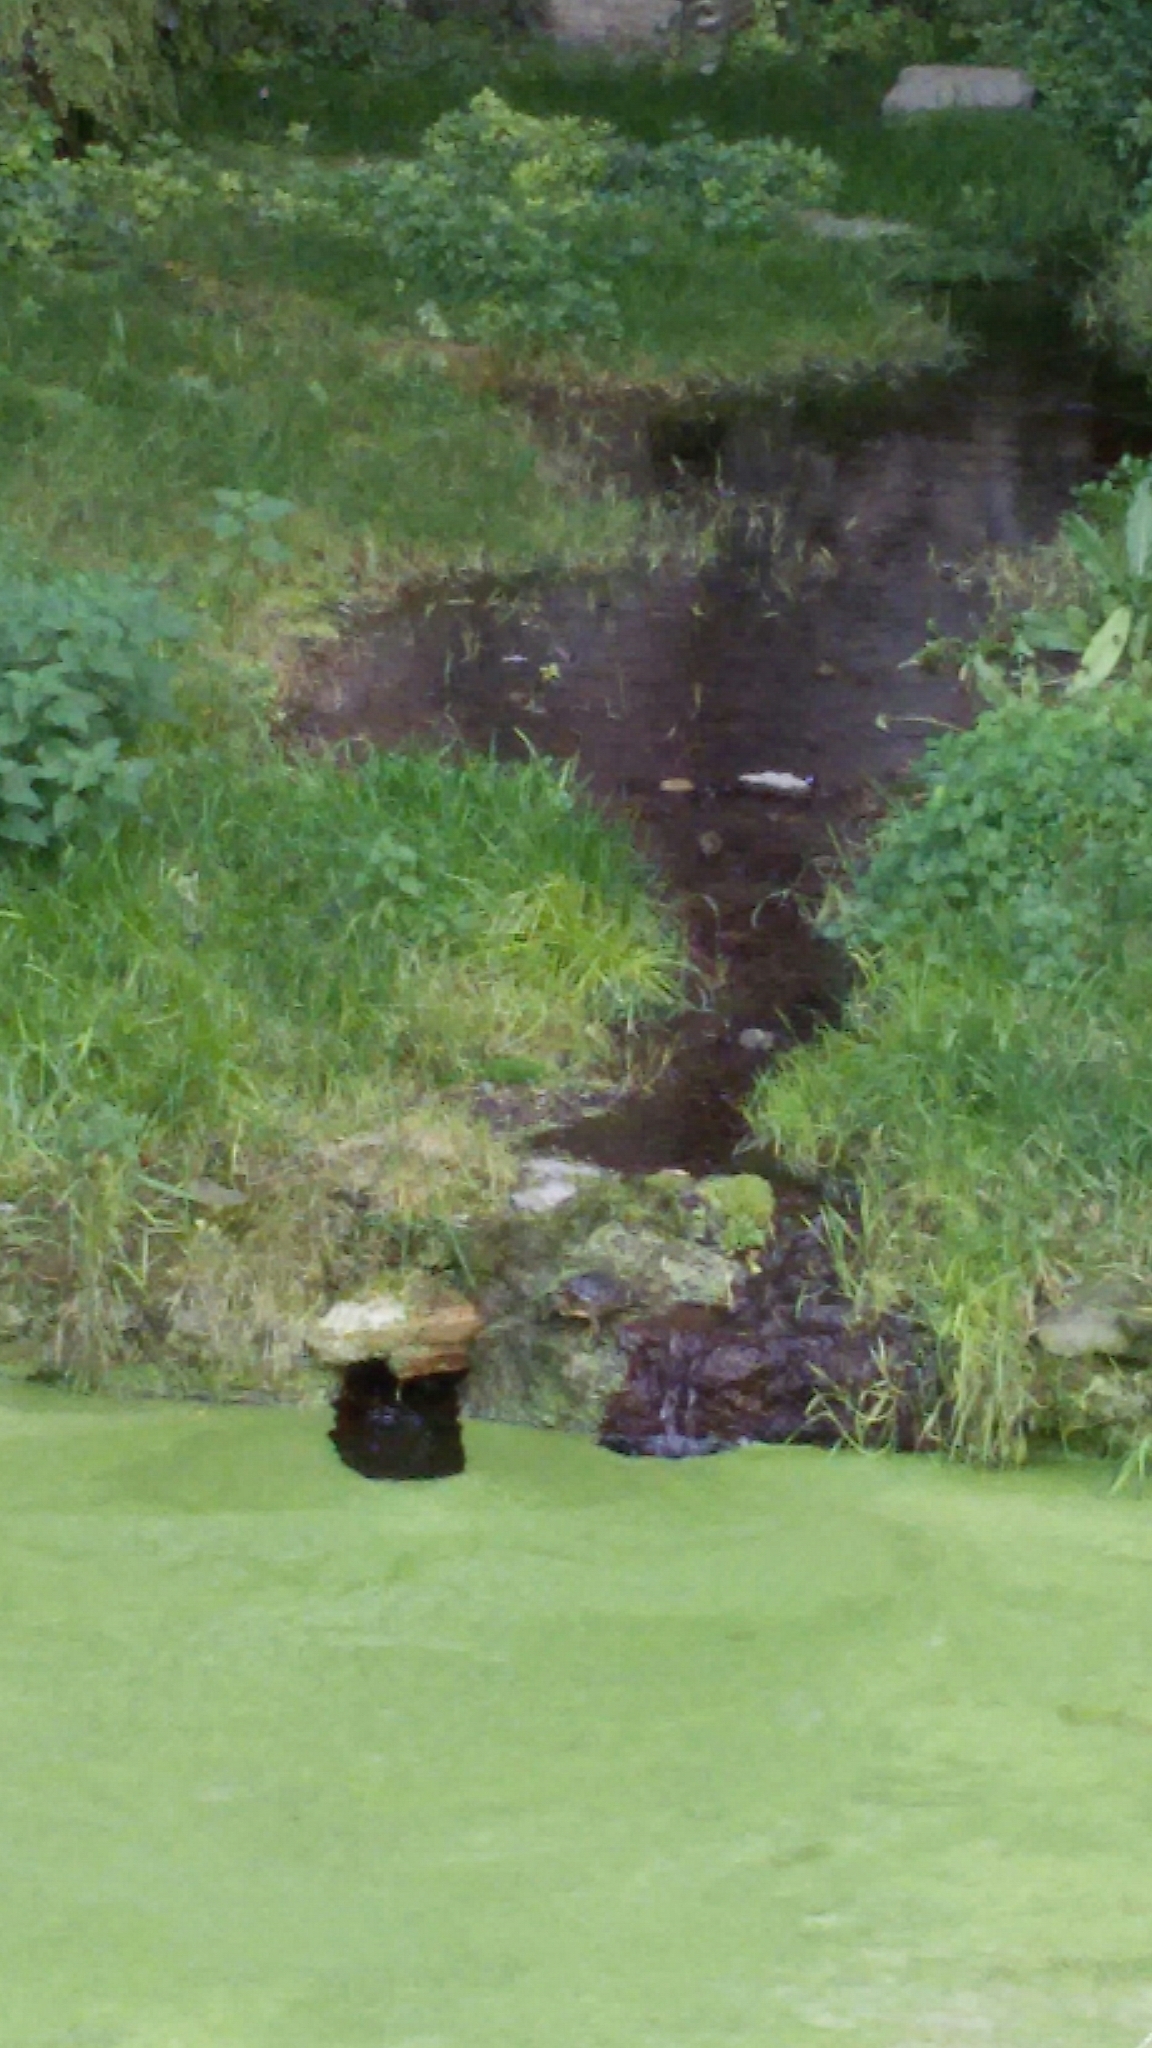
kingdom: Animalia
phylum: Chordata
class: Testudines
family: Emydidae
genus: Trachemys
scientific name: Trachemys scripta
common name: Slider
